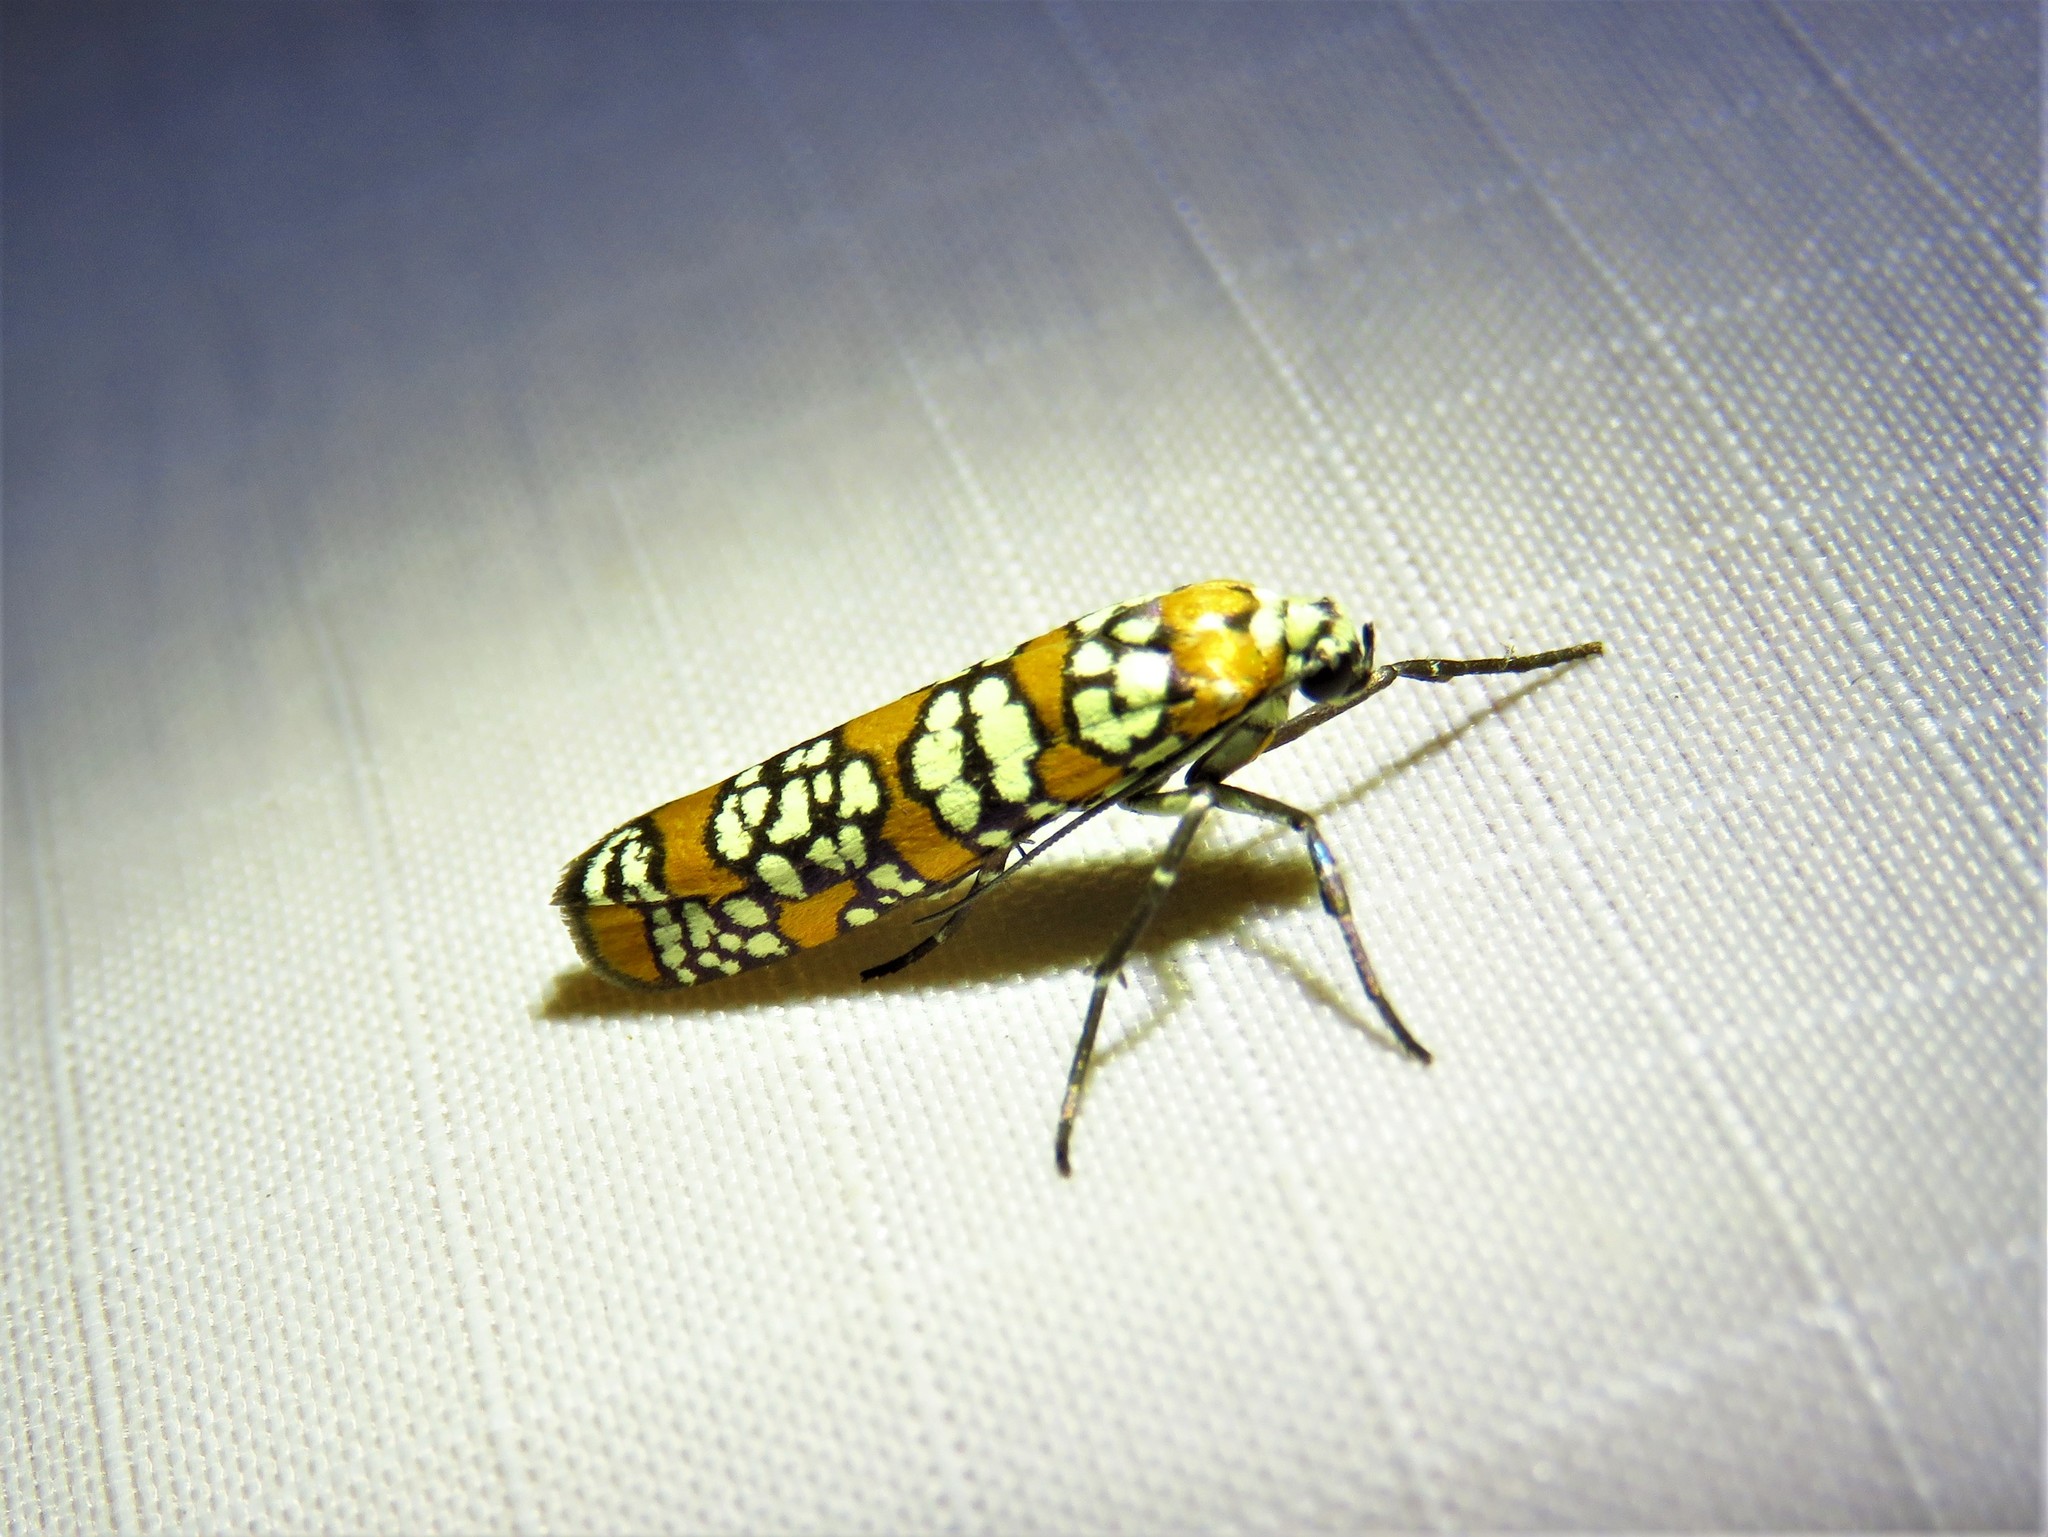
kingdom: Animalia
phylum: Arthropoda
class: Insecta
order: Lepidoptera
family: Attevidae
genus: Atteva
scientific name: Atteva punctella
